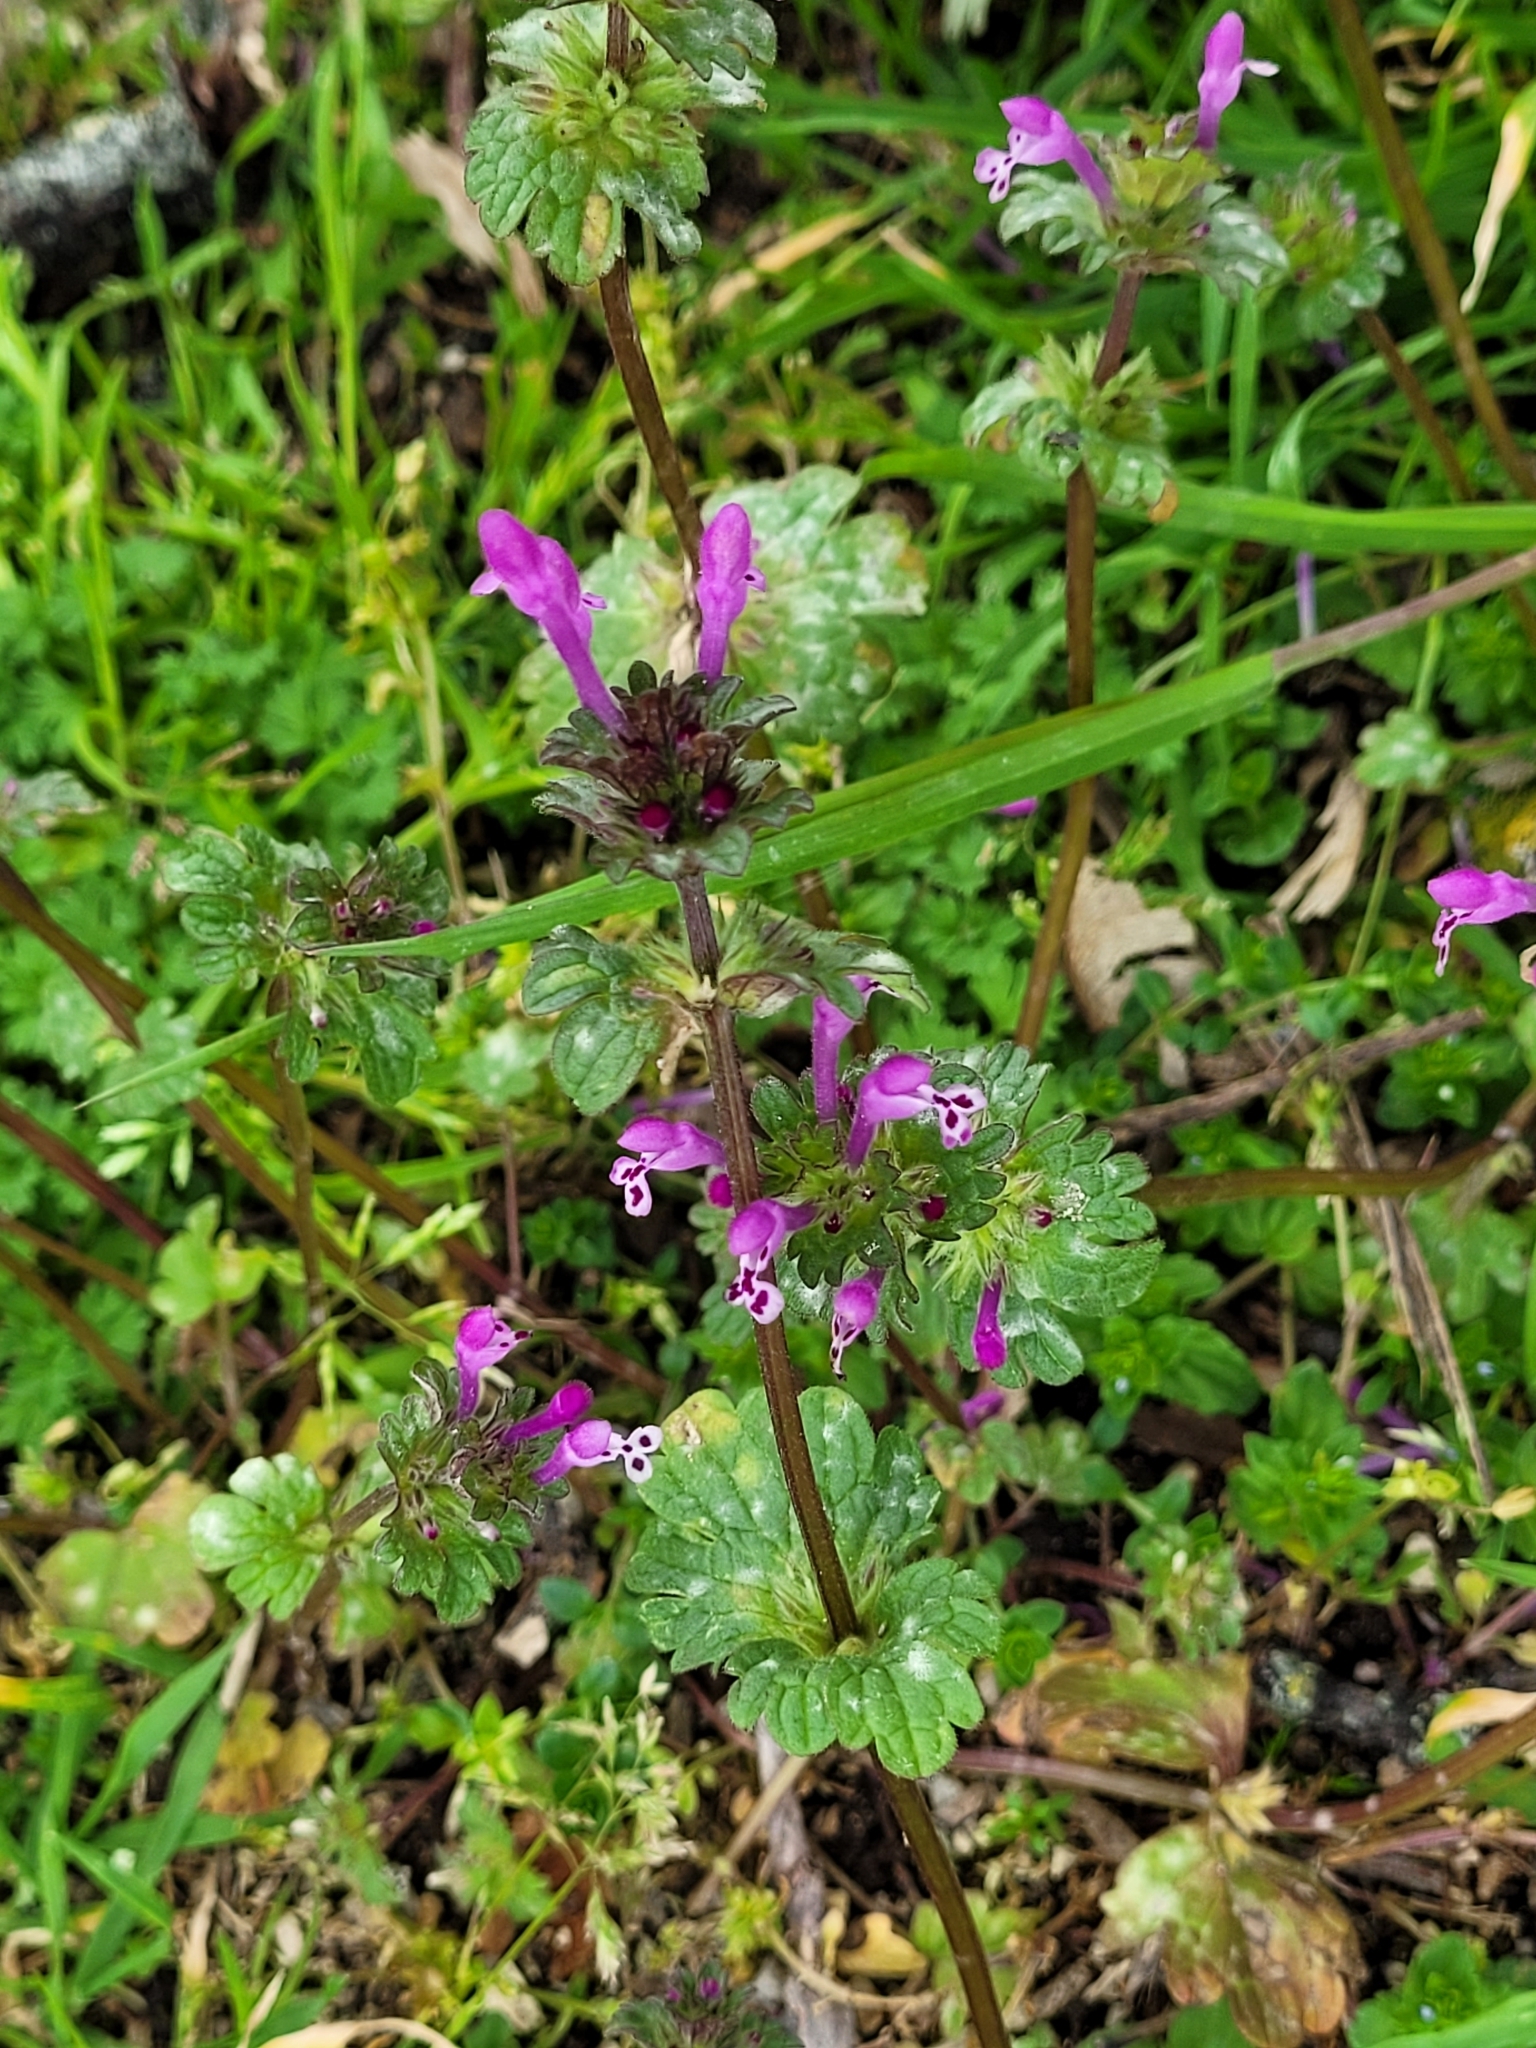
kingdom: Plantae
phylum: Tracheophyta
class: Magnoliopsida
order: Lamiales
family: Lamiaceae
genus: Lamium
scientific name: Lamium amplexicaule
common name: Henbit dead-nettle
